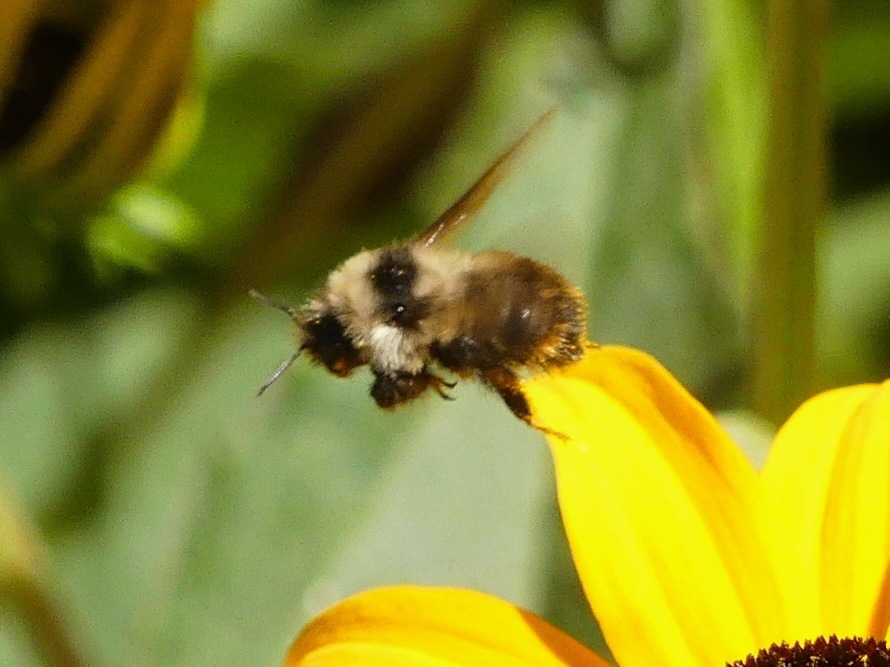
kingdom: Animalia
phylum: Arthropoda
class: Insecta
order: Hymenoptera
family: Apidae
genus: Bombus
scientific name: Bombus rufocinctus
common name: Red-belted bumble bee
